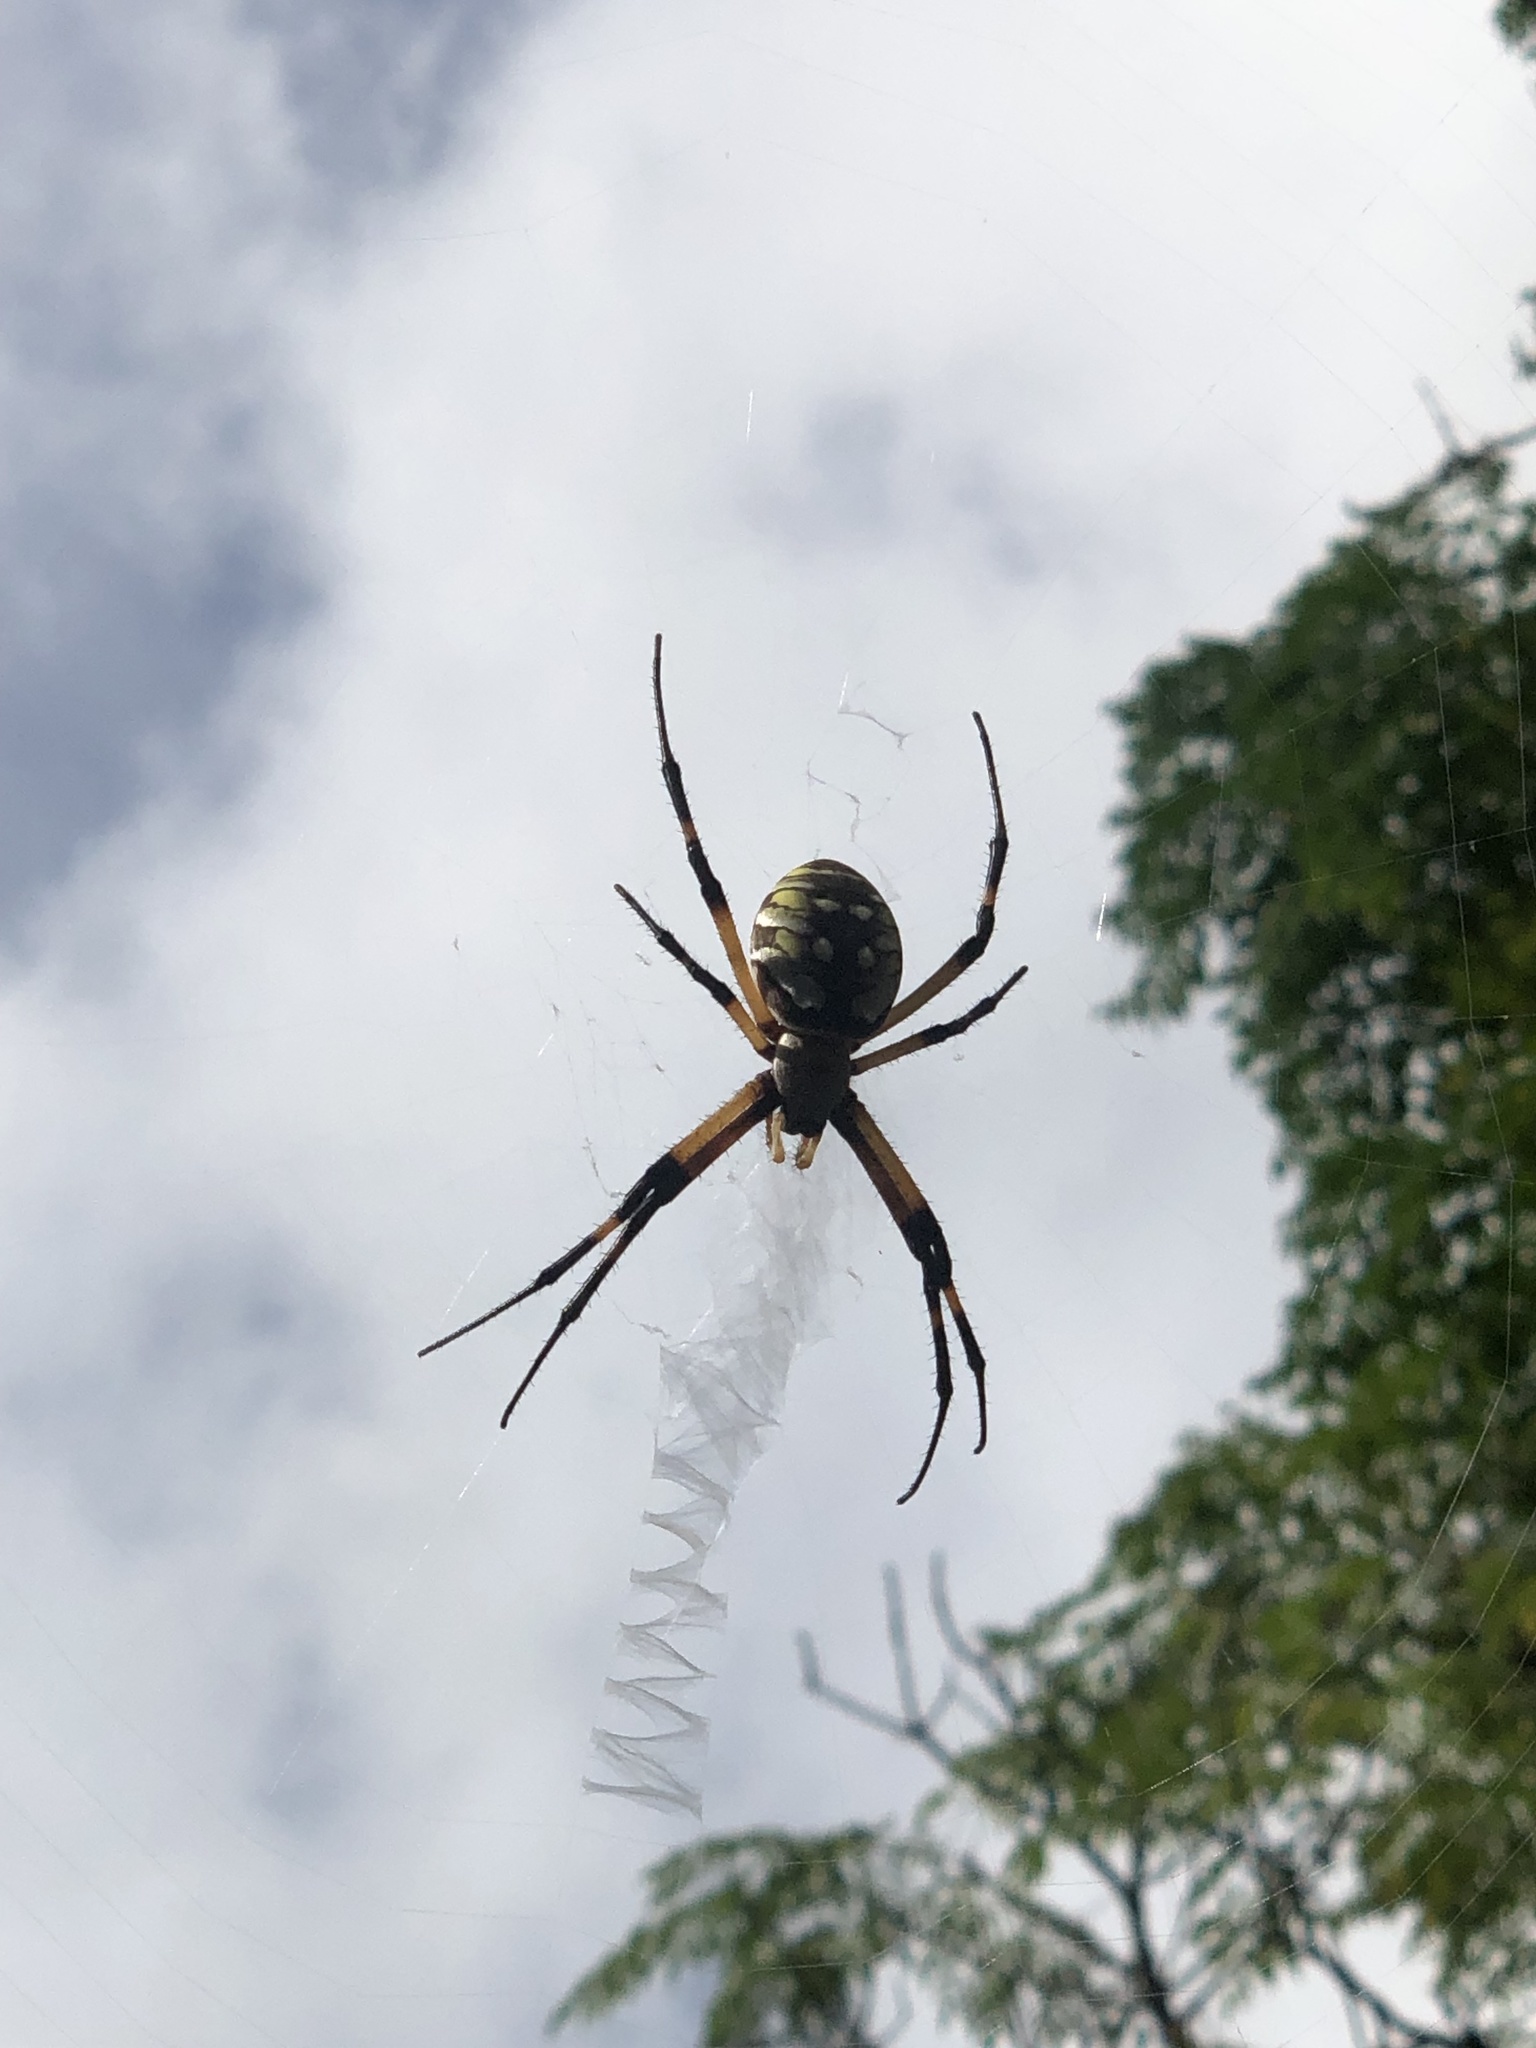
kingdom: Animalia
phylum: Arthropoda
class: Arachnida
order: Araneae
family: Araneidae
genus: Argiope
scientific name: Argiope aurantia
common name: Orb weavers
